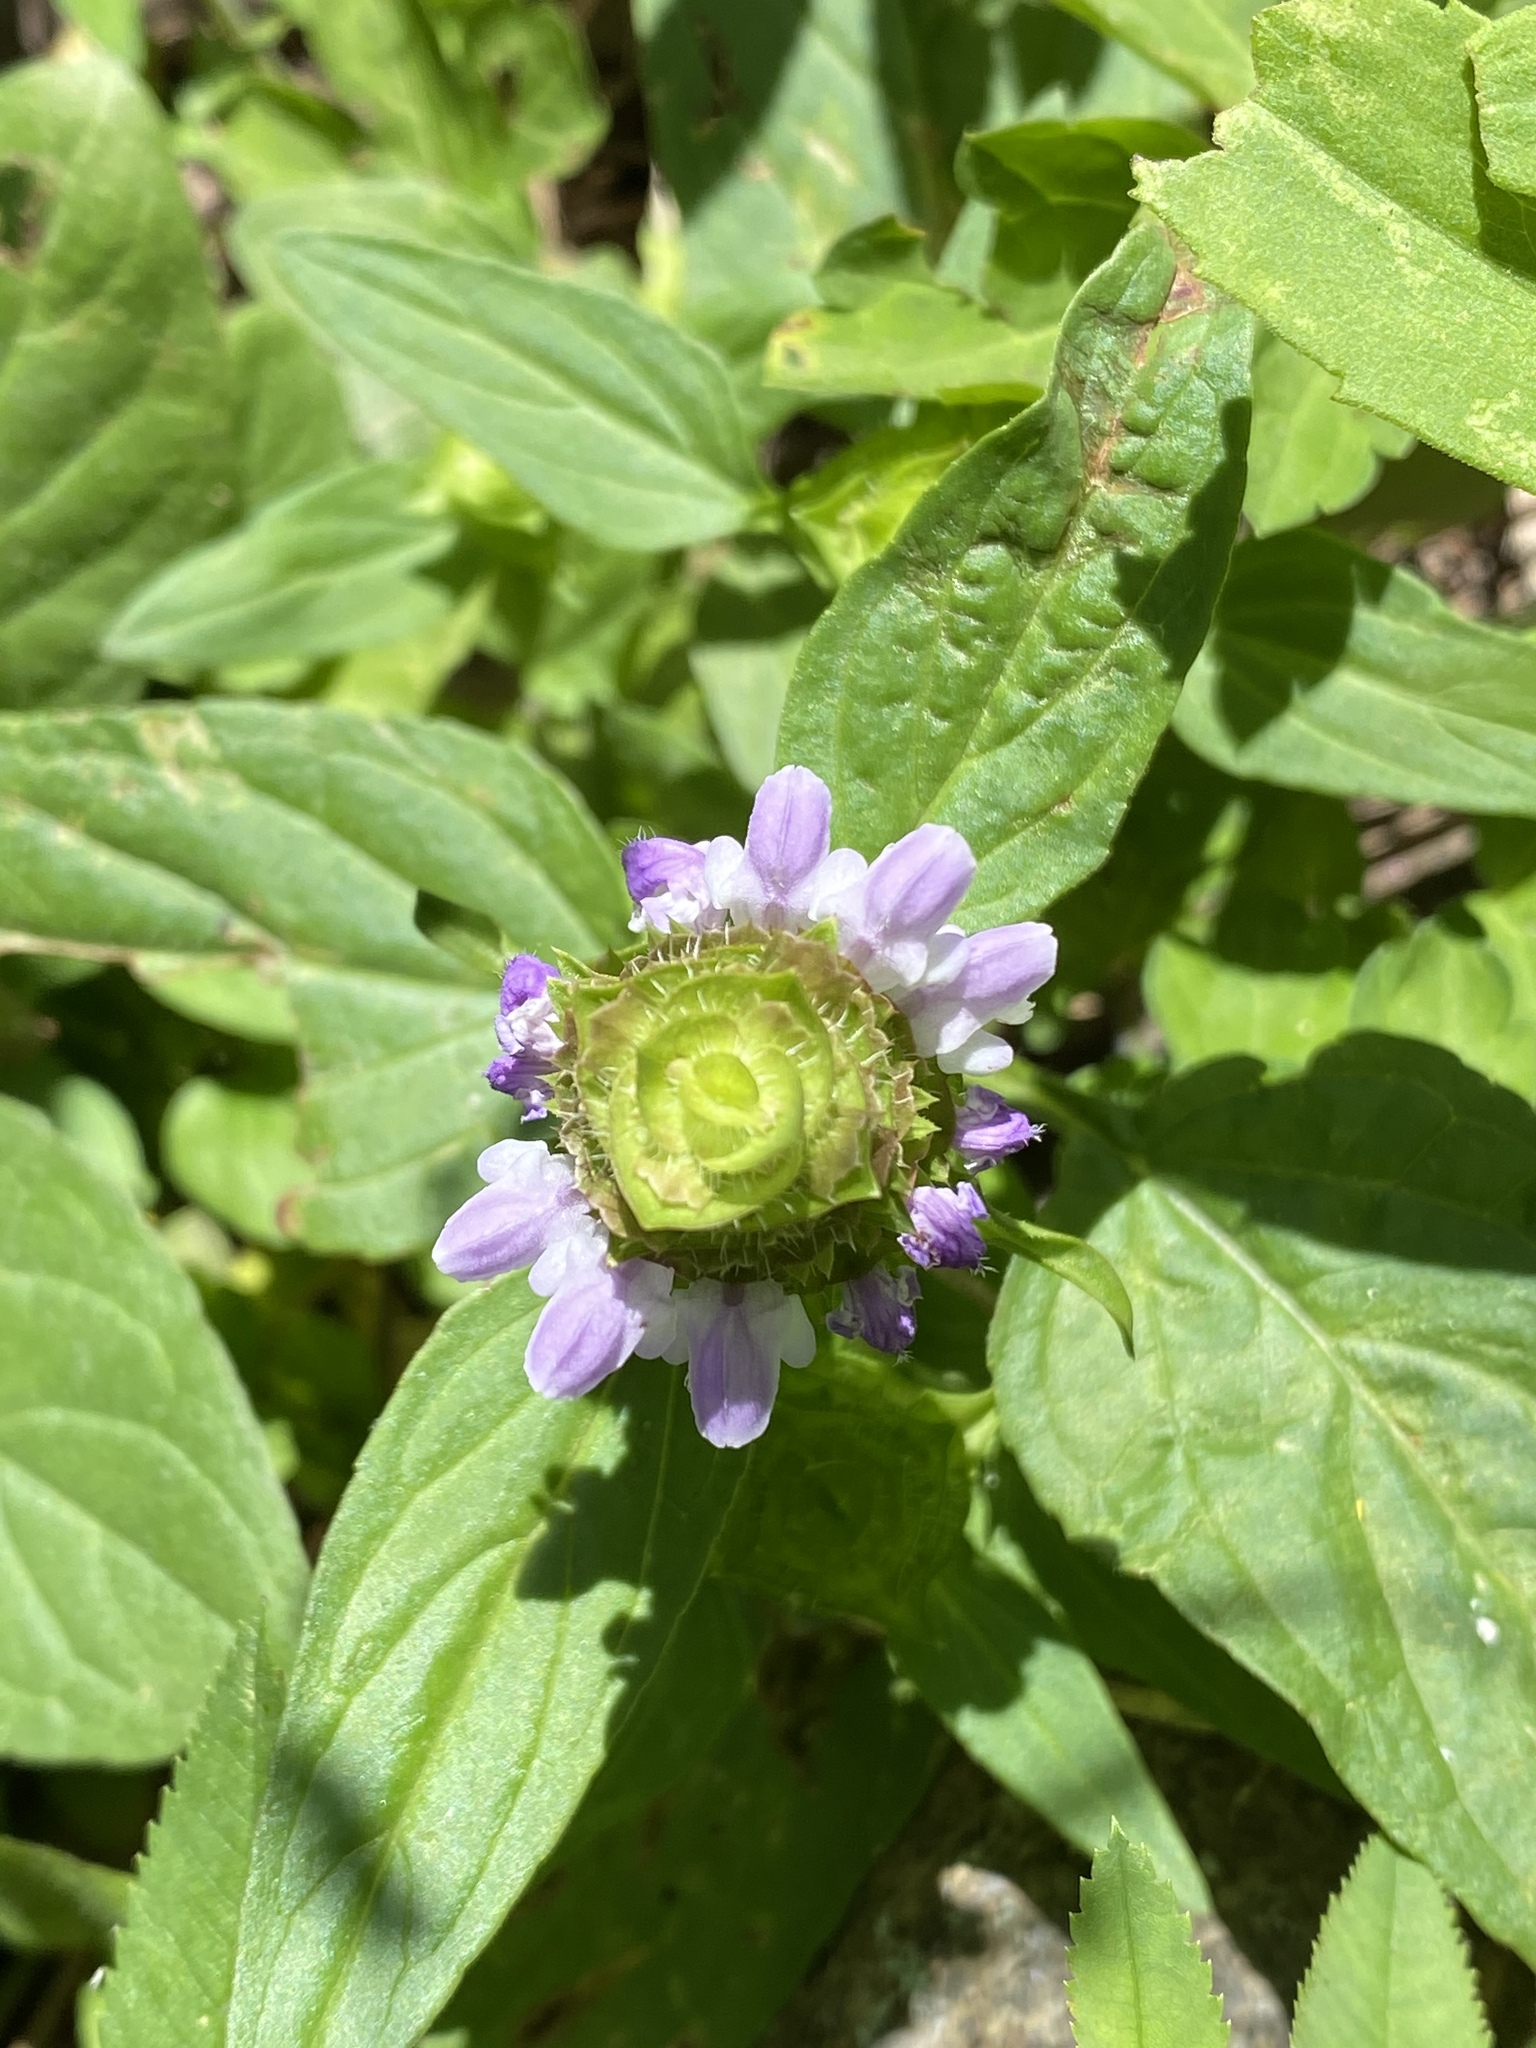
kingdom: Plantae
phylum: Tracheophyta
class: Magnoliopsida
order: Lamiales
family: Lamiaceae
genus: Prunella
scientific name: Prunella vulgaris
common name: Heal-all
